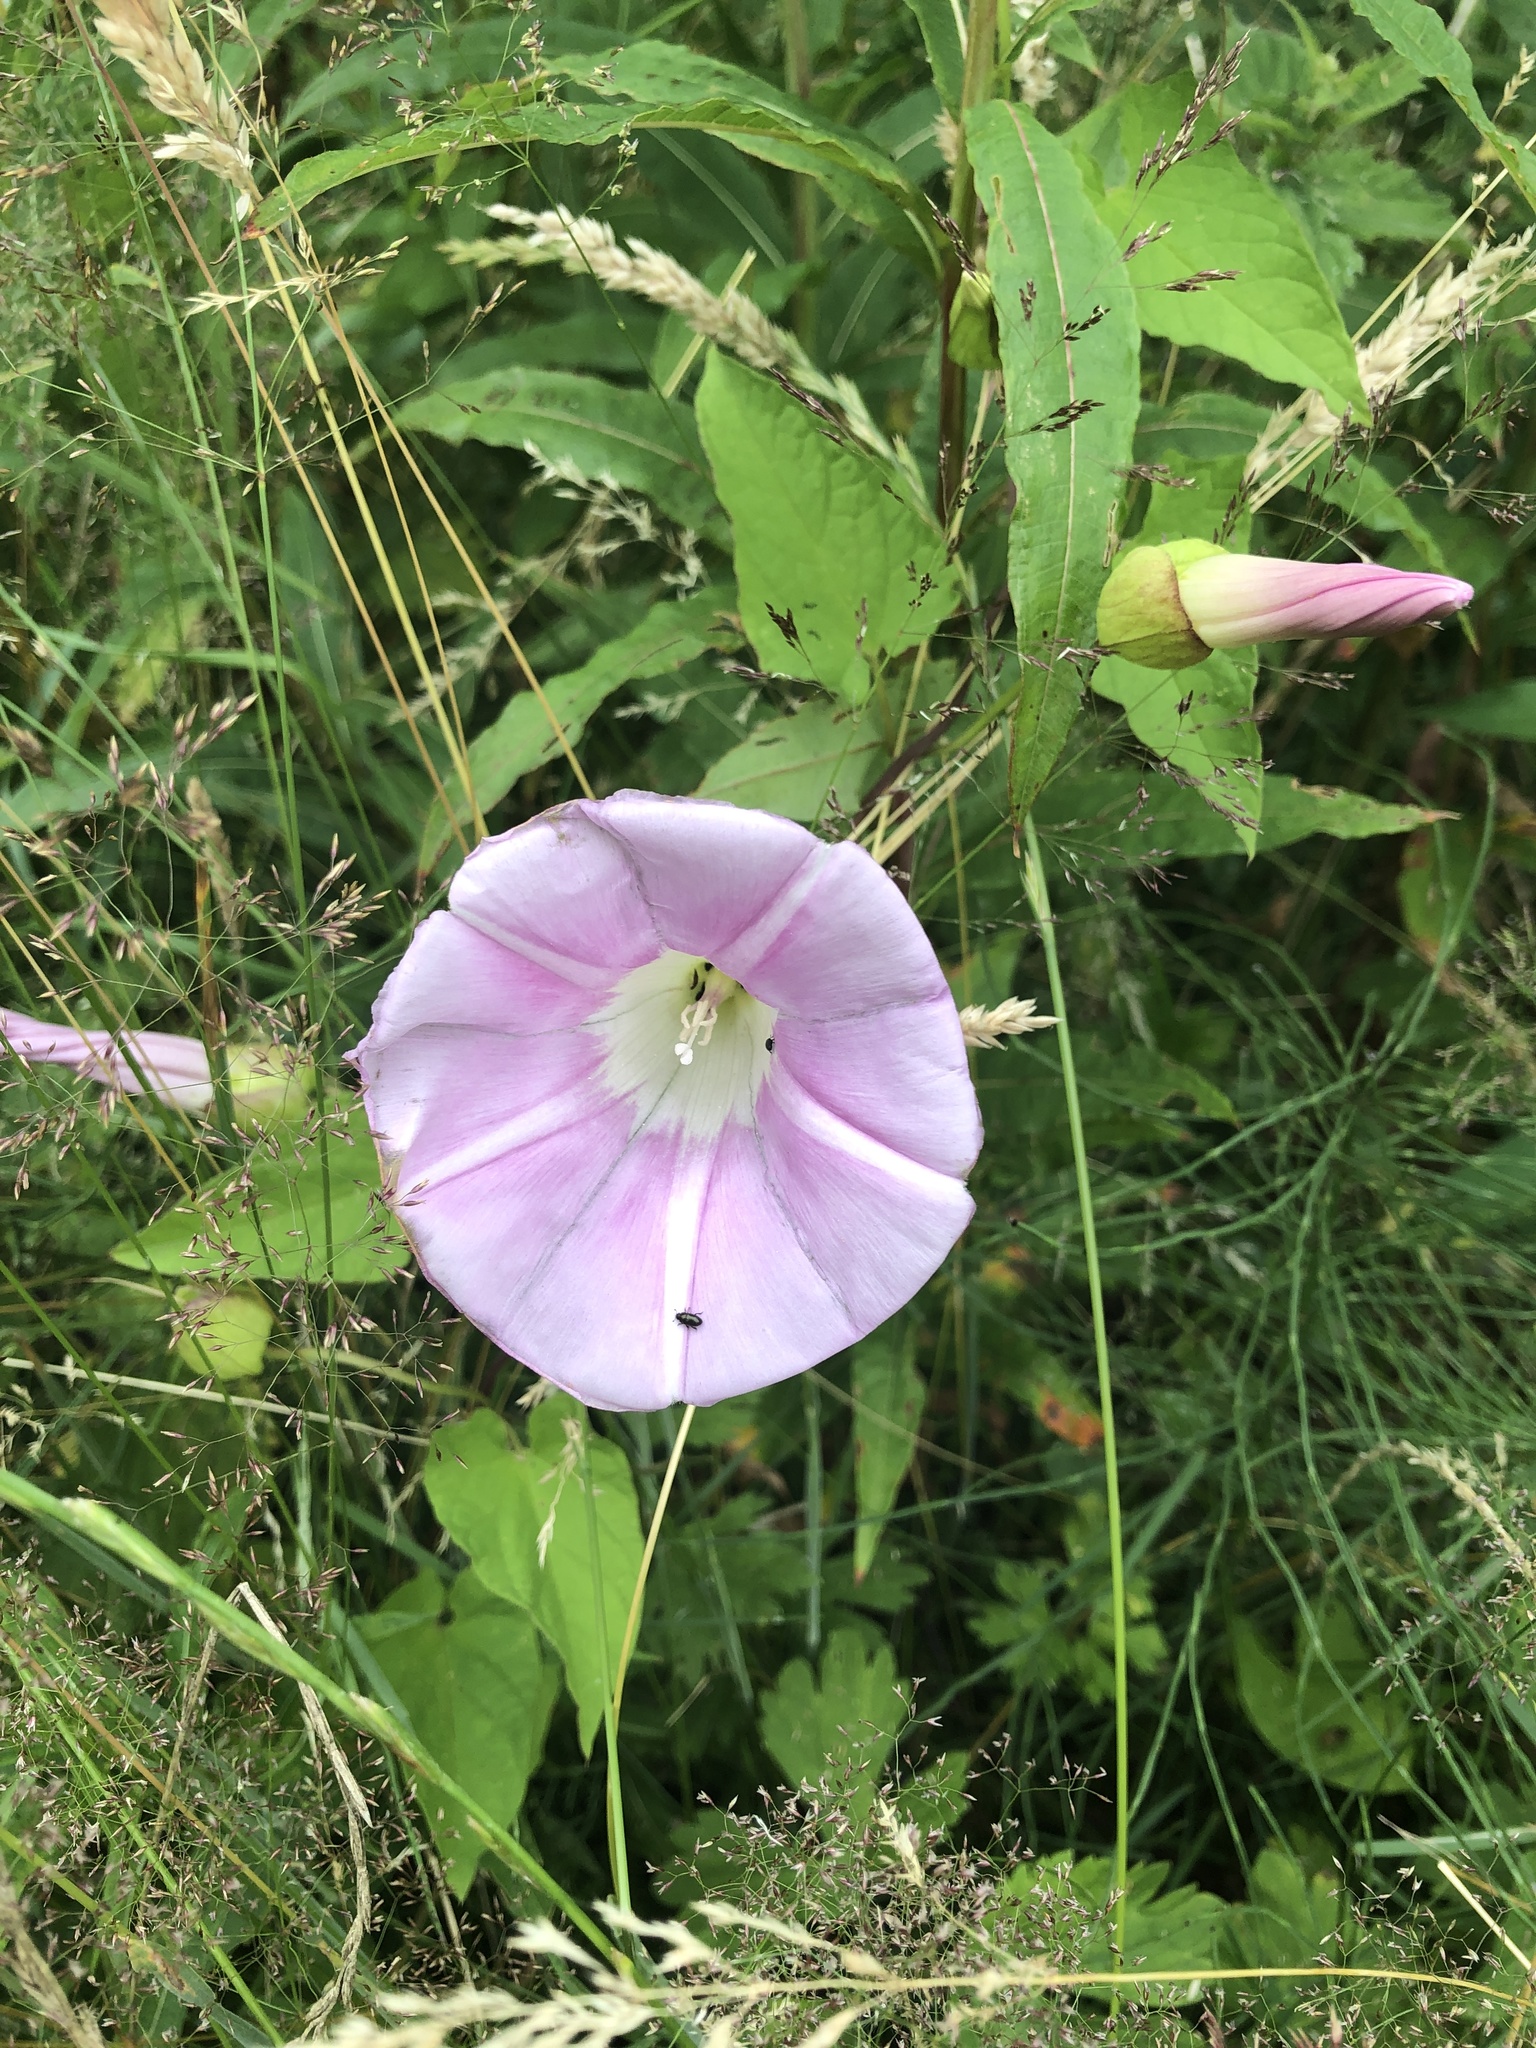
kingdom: Plantae
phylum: Tracheophyta
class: Magnoliopsida
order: Solanales
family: Convolvulaceae
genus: Calystegia
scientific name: Calystegia pulchra
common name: Hairy bindweed
